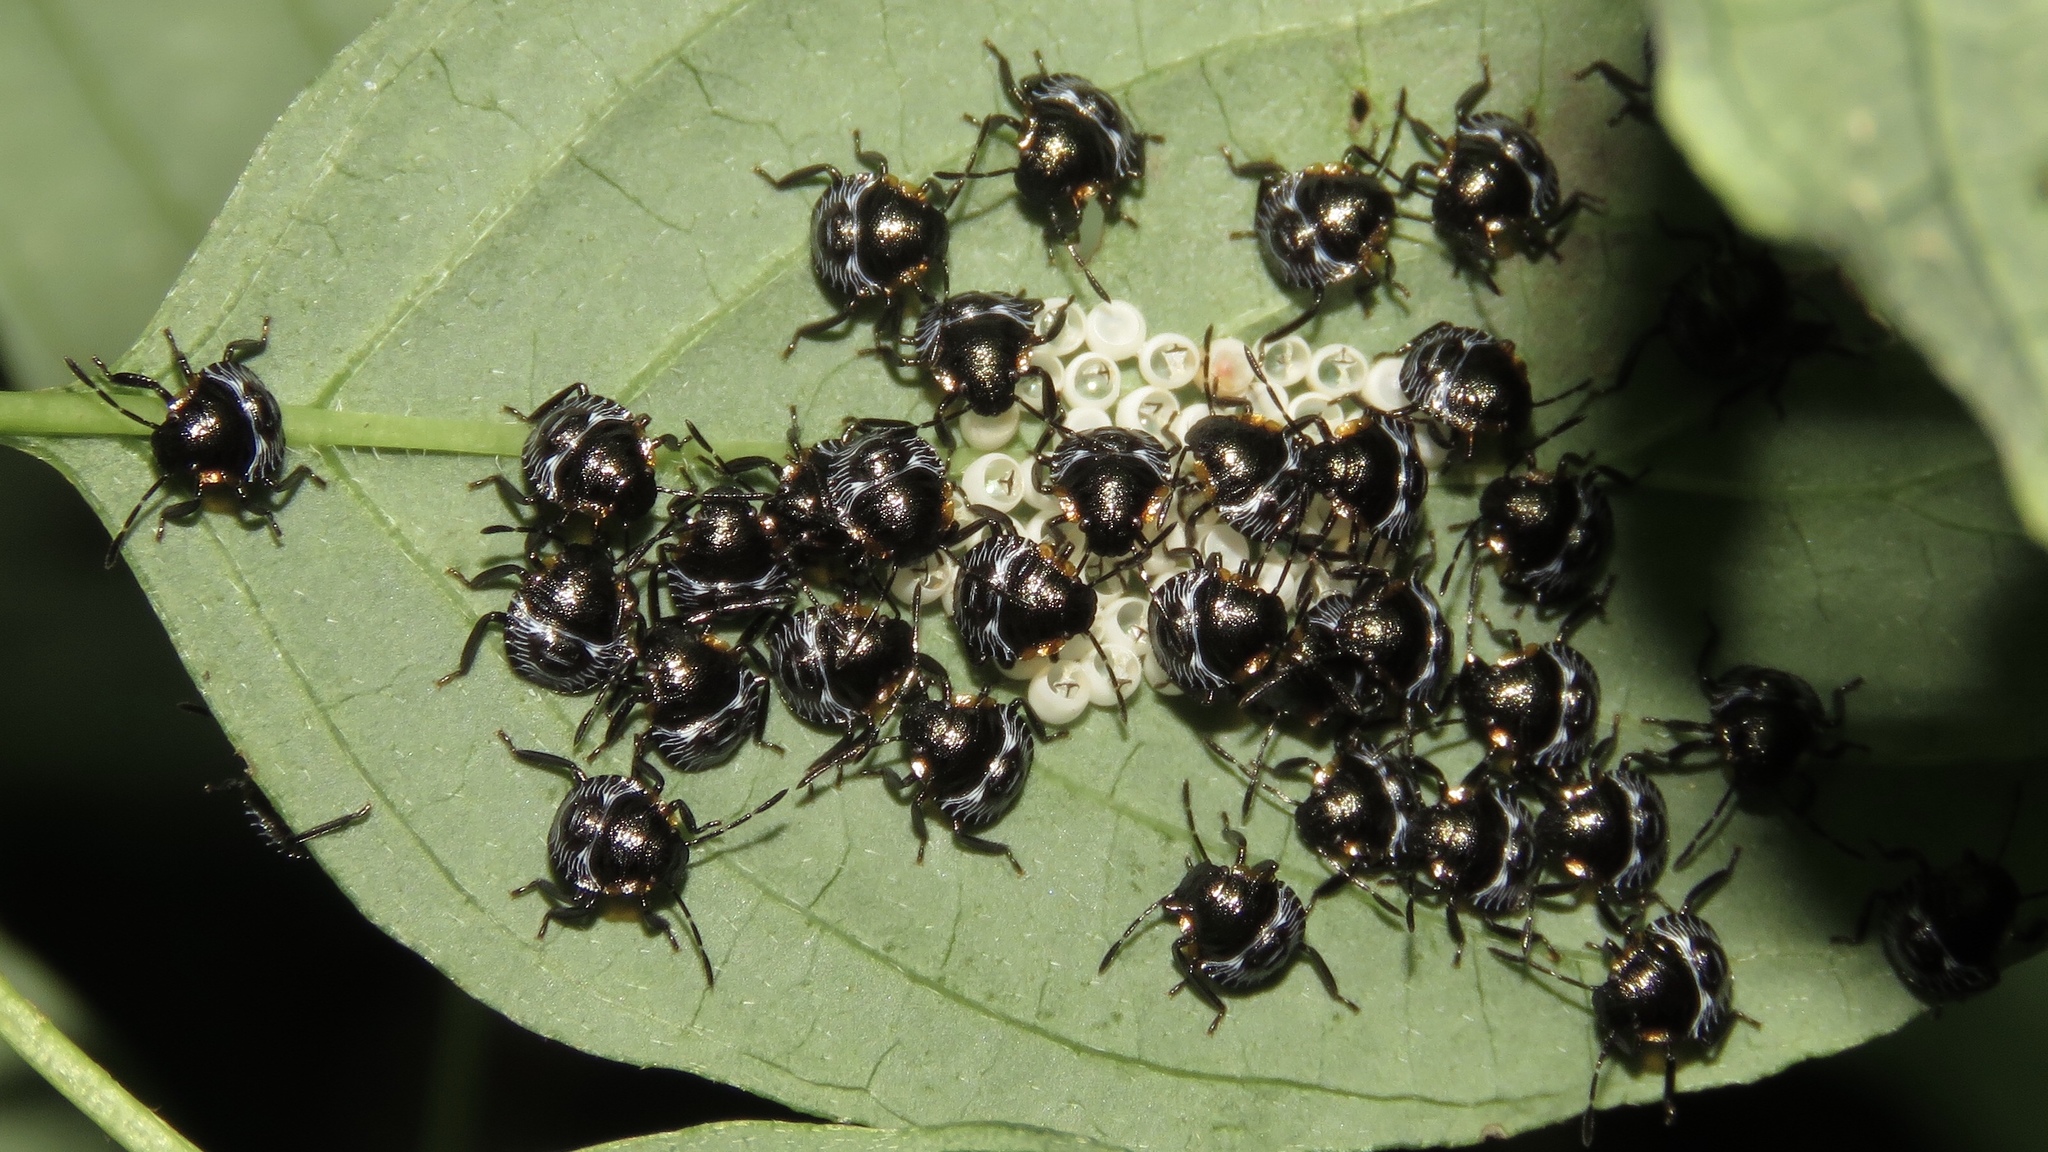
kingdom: Animalia
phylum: Arthropoda
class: Insecta
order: Hemiptera
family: Pentatomidae
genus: Chinavia
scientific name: Chinavia hilaris
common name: Green stink bug
